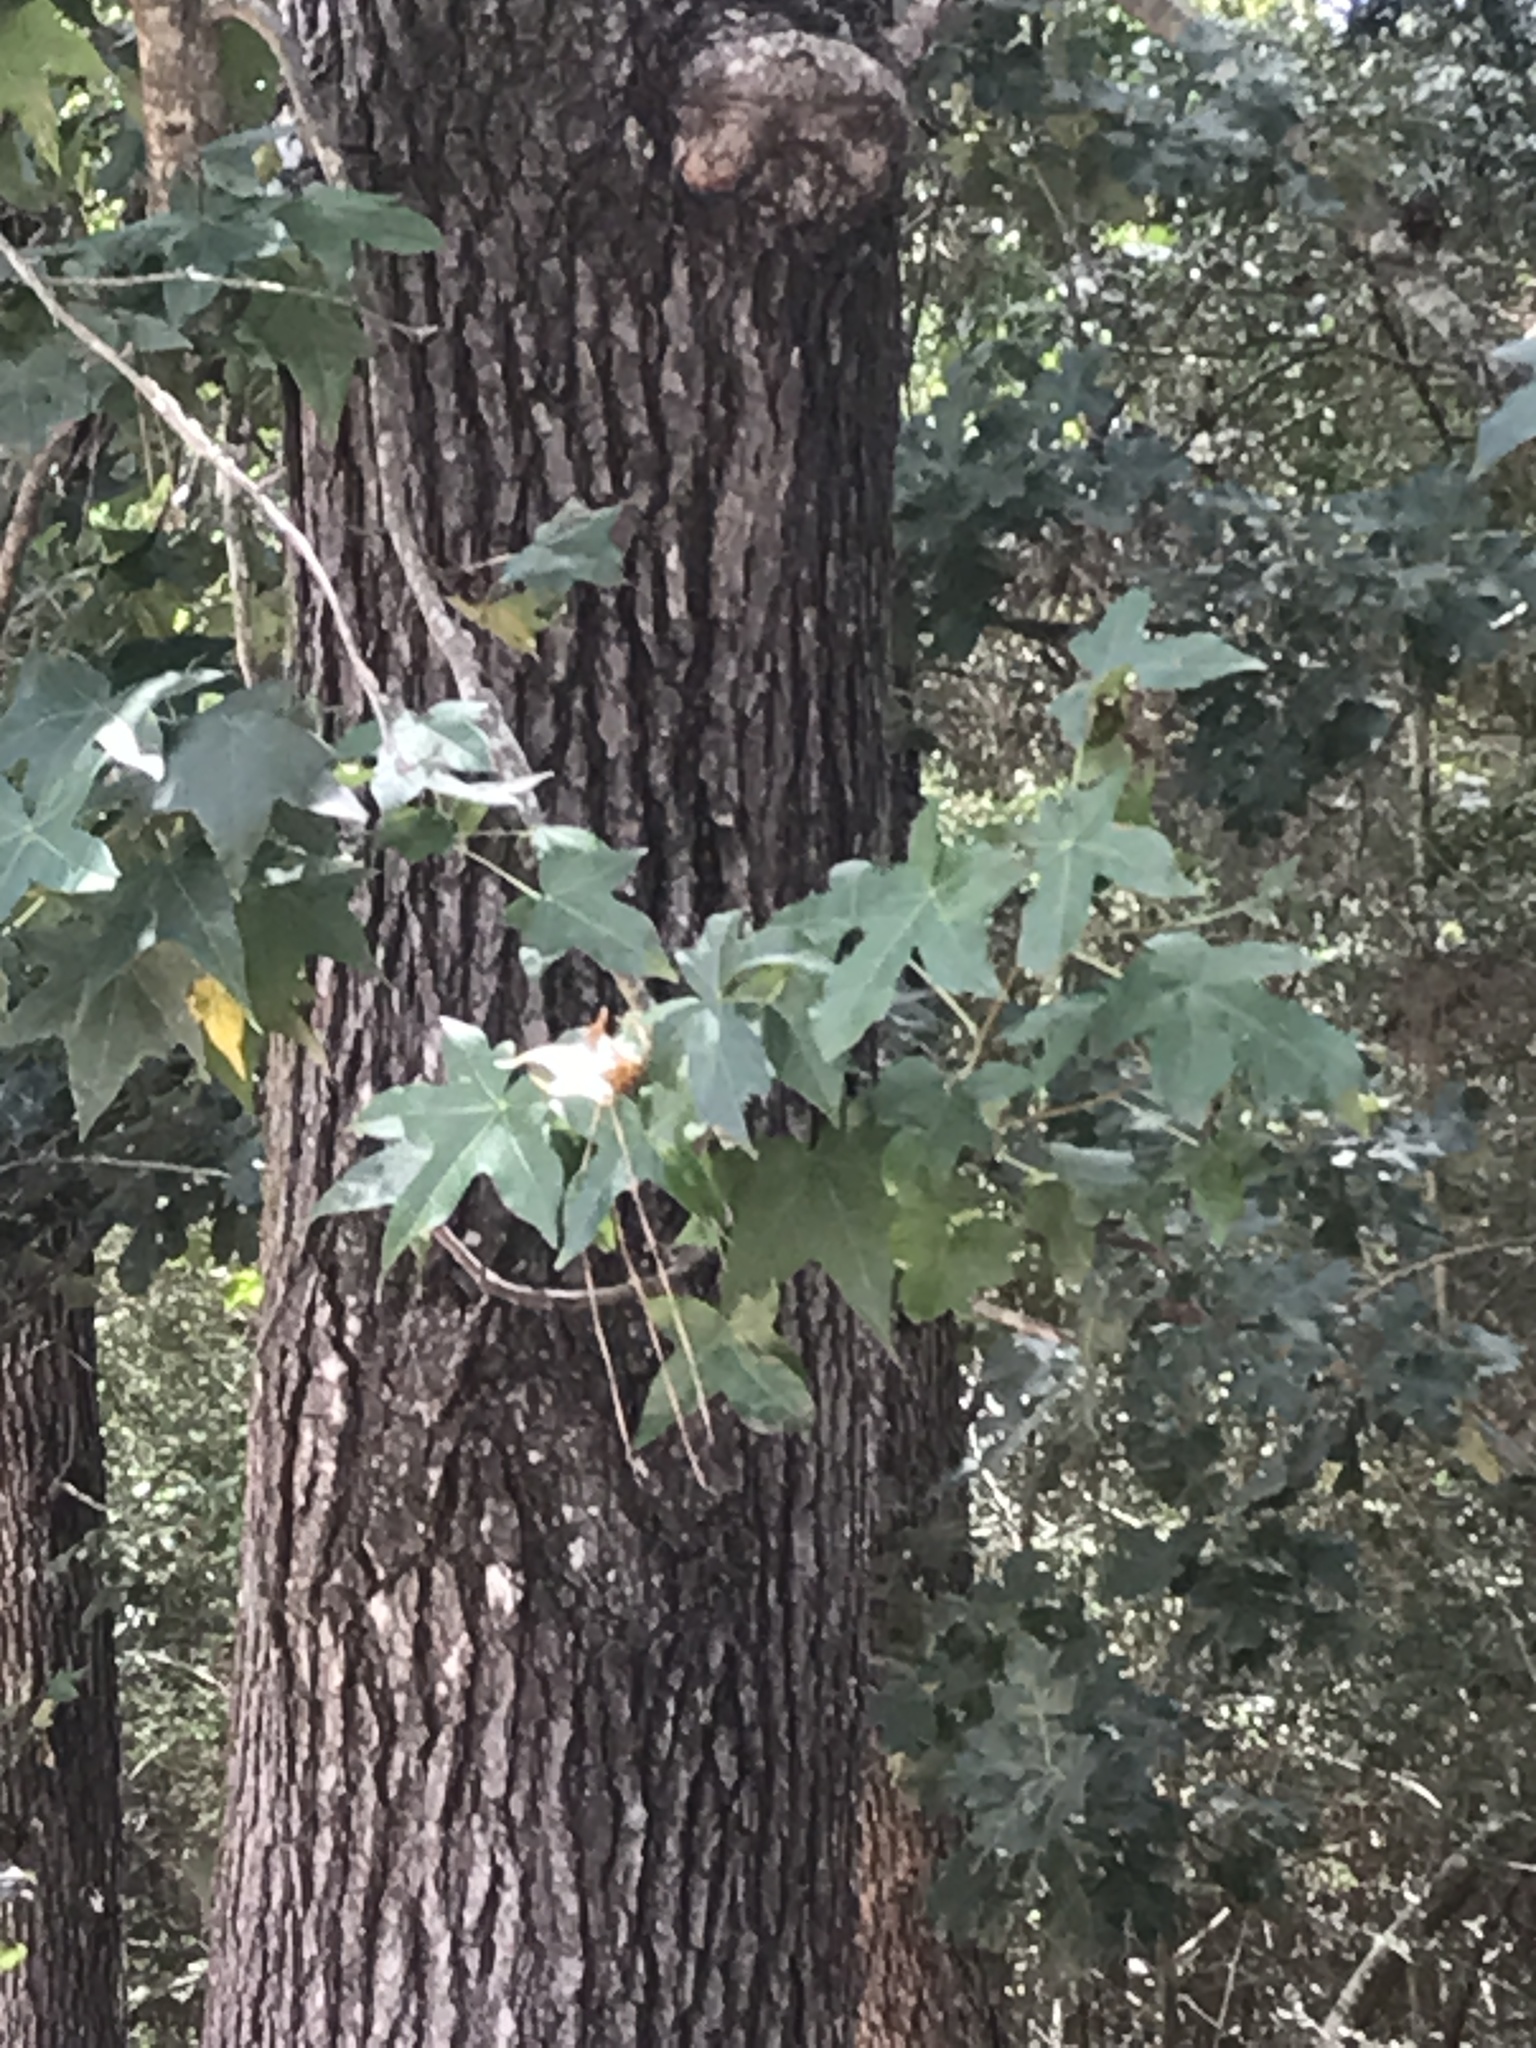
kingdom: Plantae
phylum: Tracheophyta
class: Magnoliopsida
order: Saxifragales
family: Altingiaceae
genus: Liquidambar
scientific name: Liquidambar styraciflua
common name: Sweet gum
